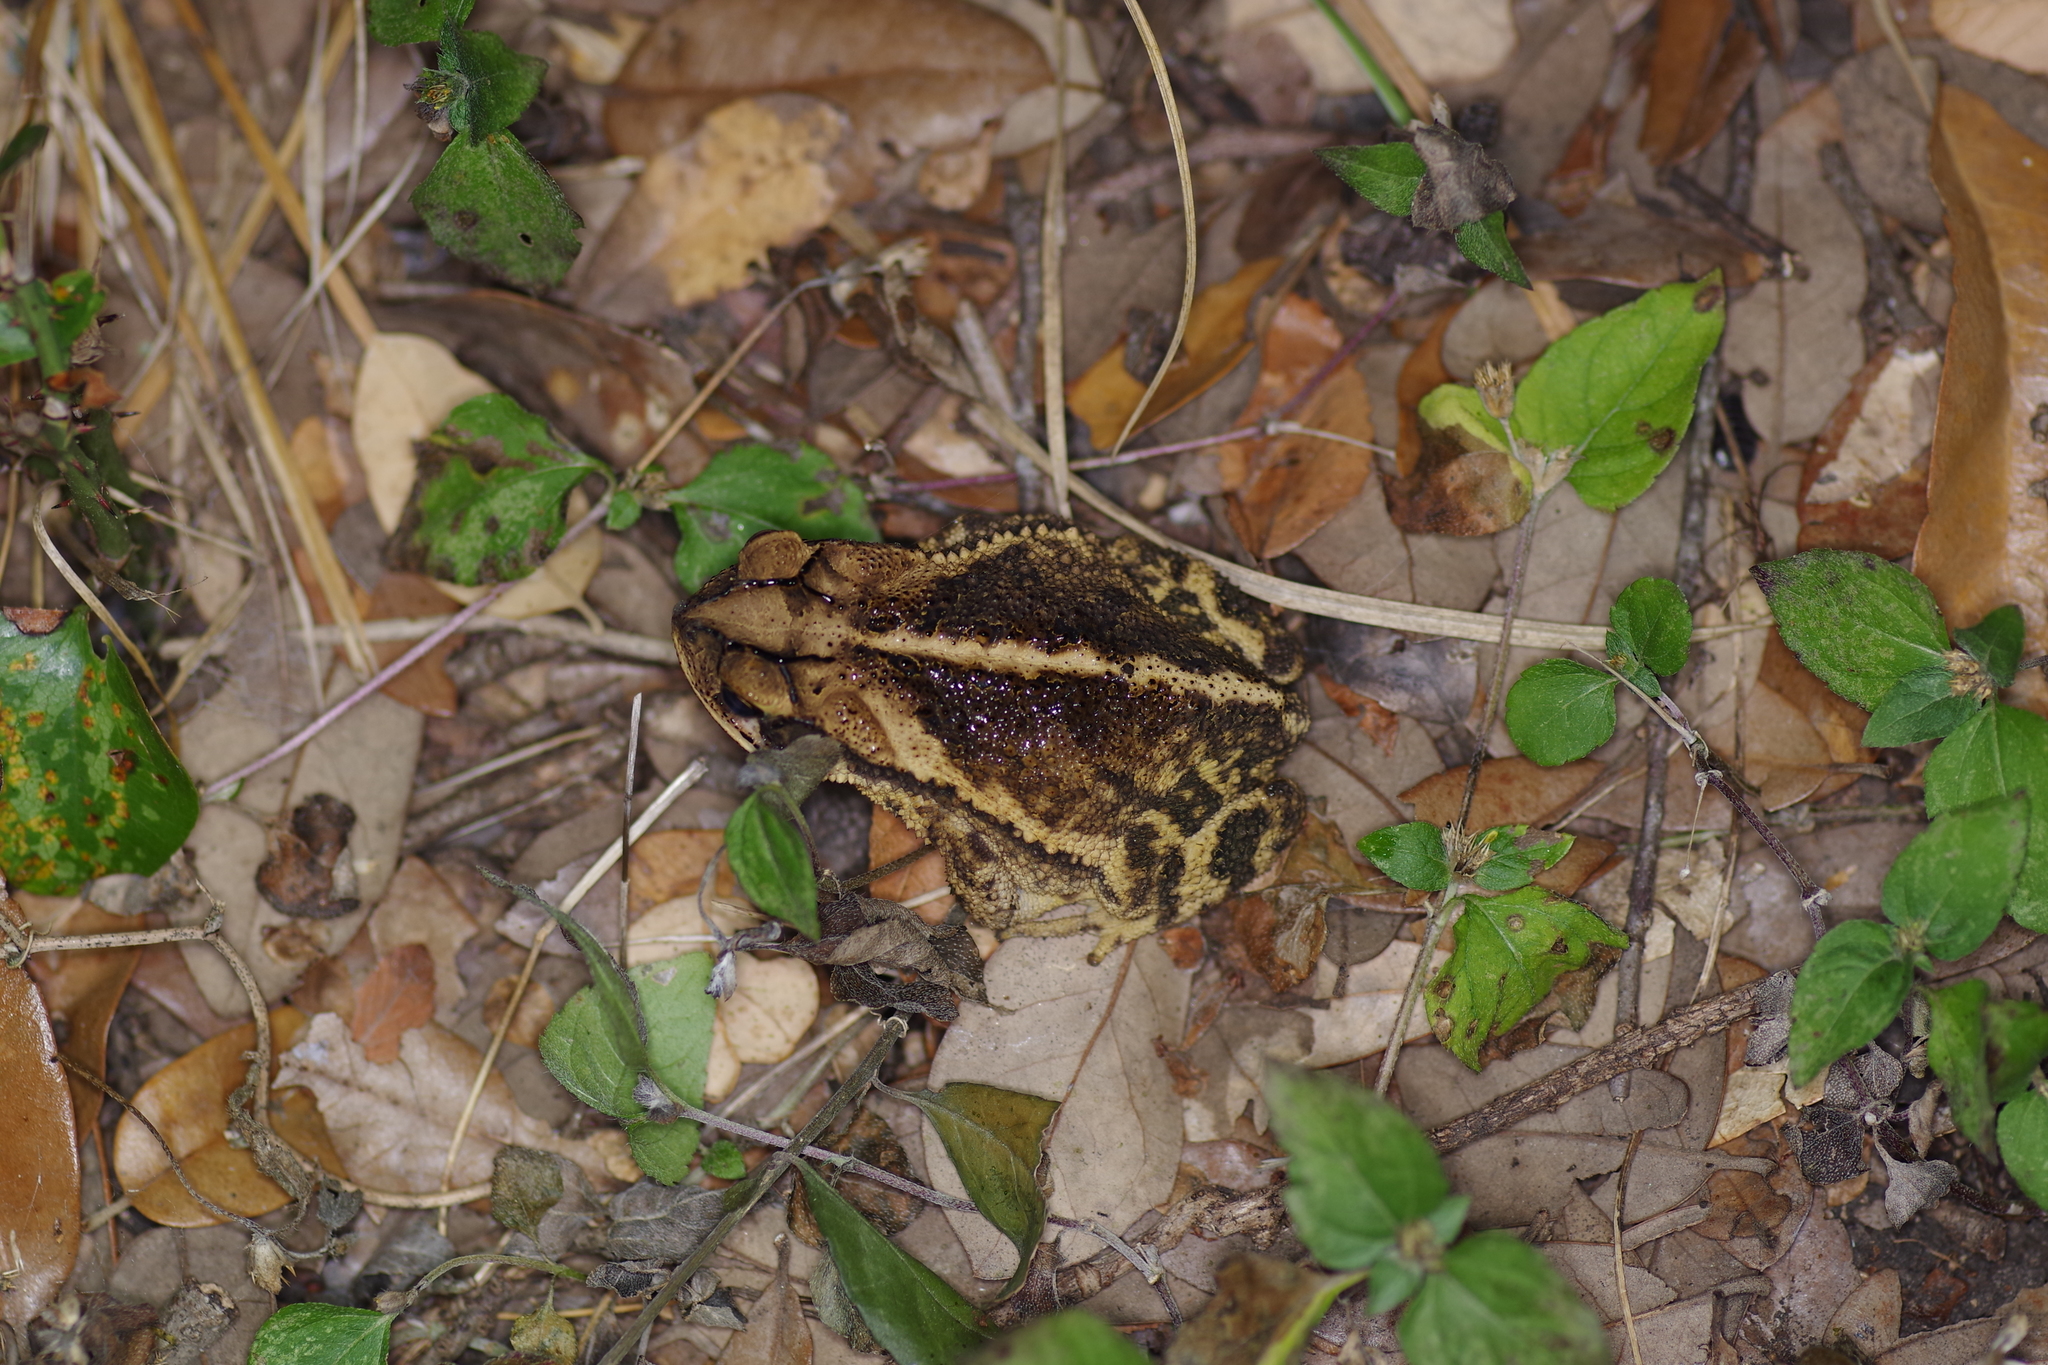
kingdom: Animalia
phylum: Chordata
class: Amphibia
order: Anura
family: Bufonidae
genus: Incilius
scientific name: Incilius nebulifer
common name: Gulf coast toad
